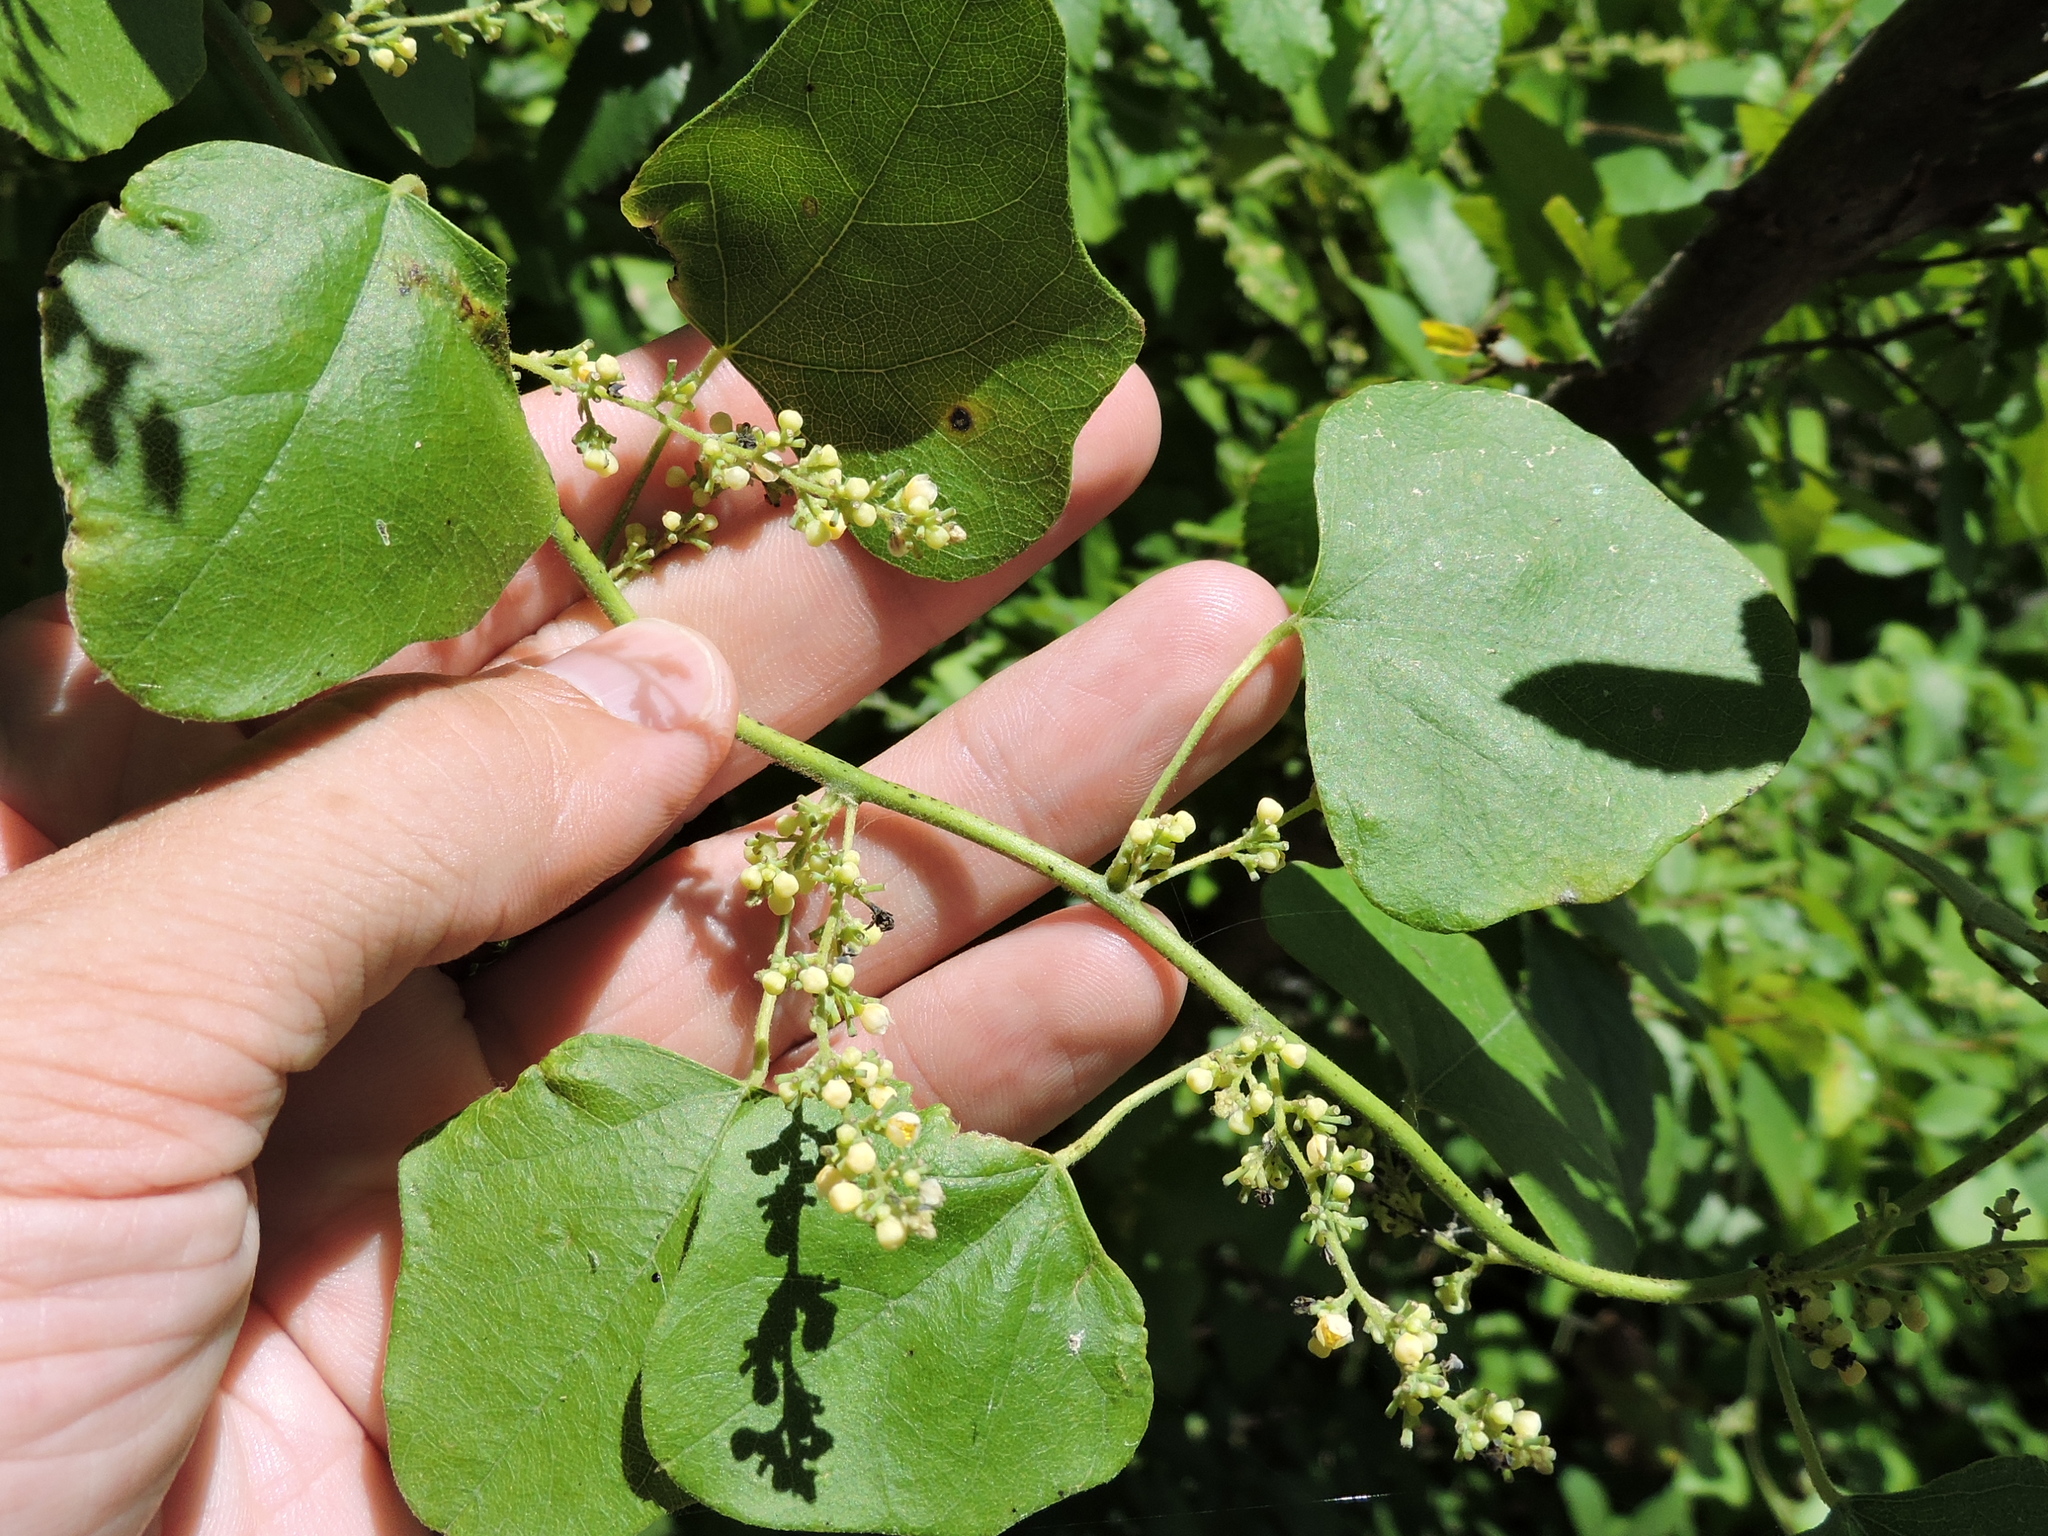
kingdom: Plantae
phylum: Tracheophyta
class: Magnoliopsida
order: Ranunculales
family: Menispermaceae
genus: Cocculus
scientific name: Cocculus carolinus
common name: Carolina moonseed
